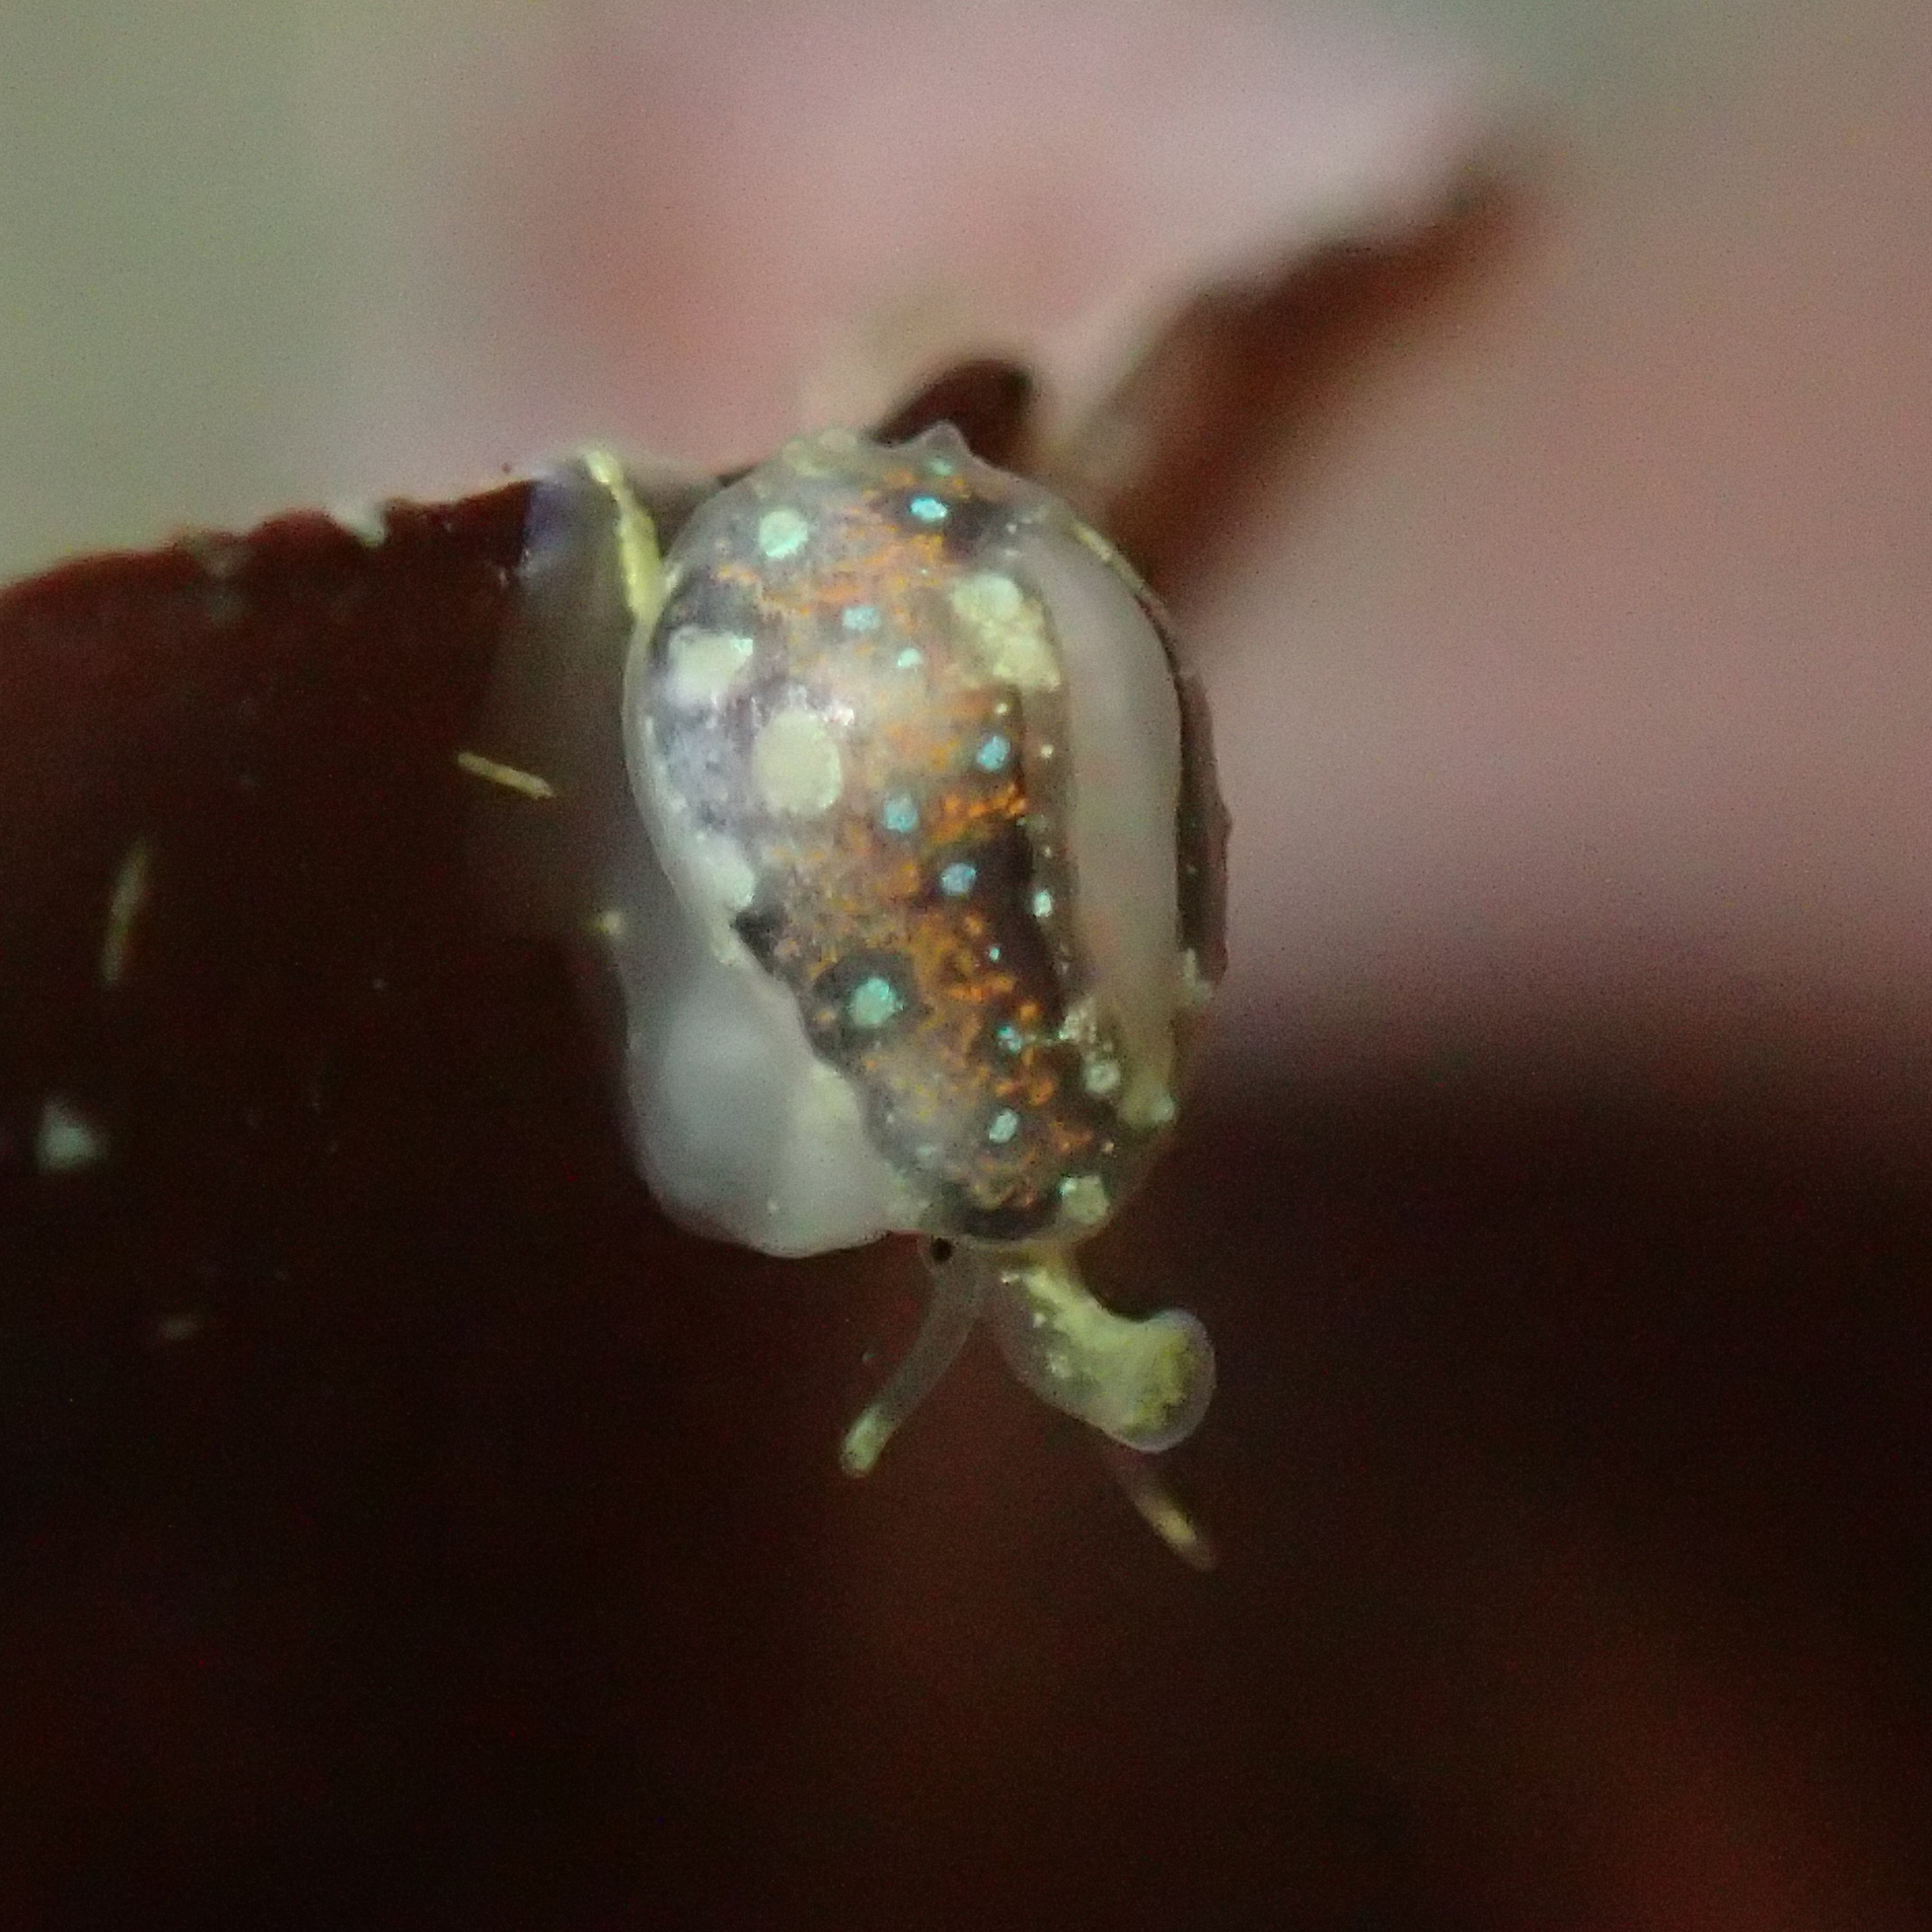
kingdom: Animalia
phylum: Mollusca
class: Gastropoda
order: Neogastropoda
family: Granulinidae
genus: Granulina
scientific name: Granulina margaritula
